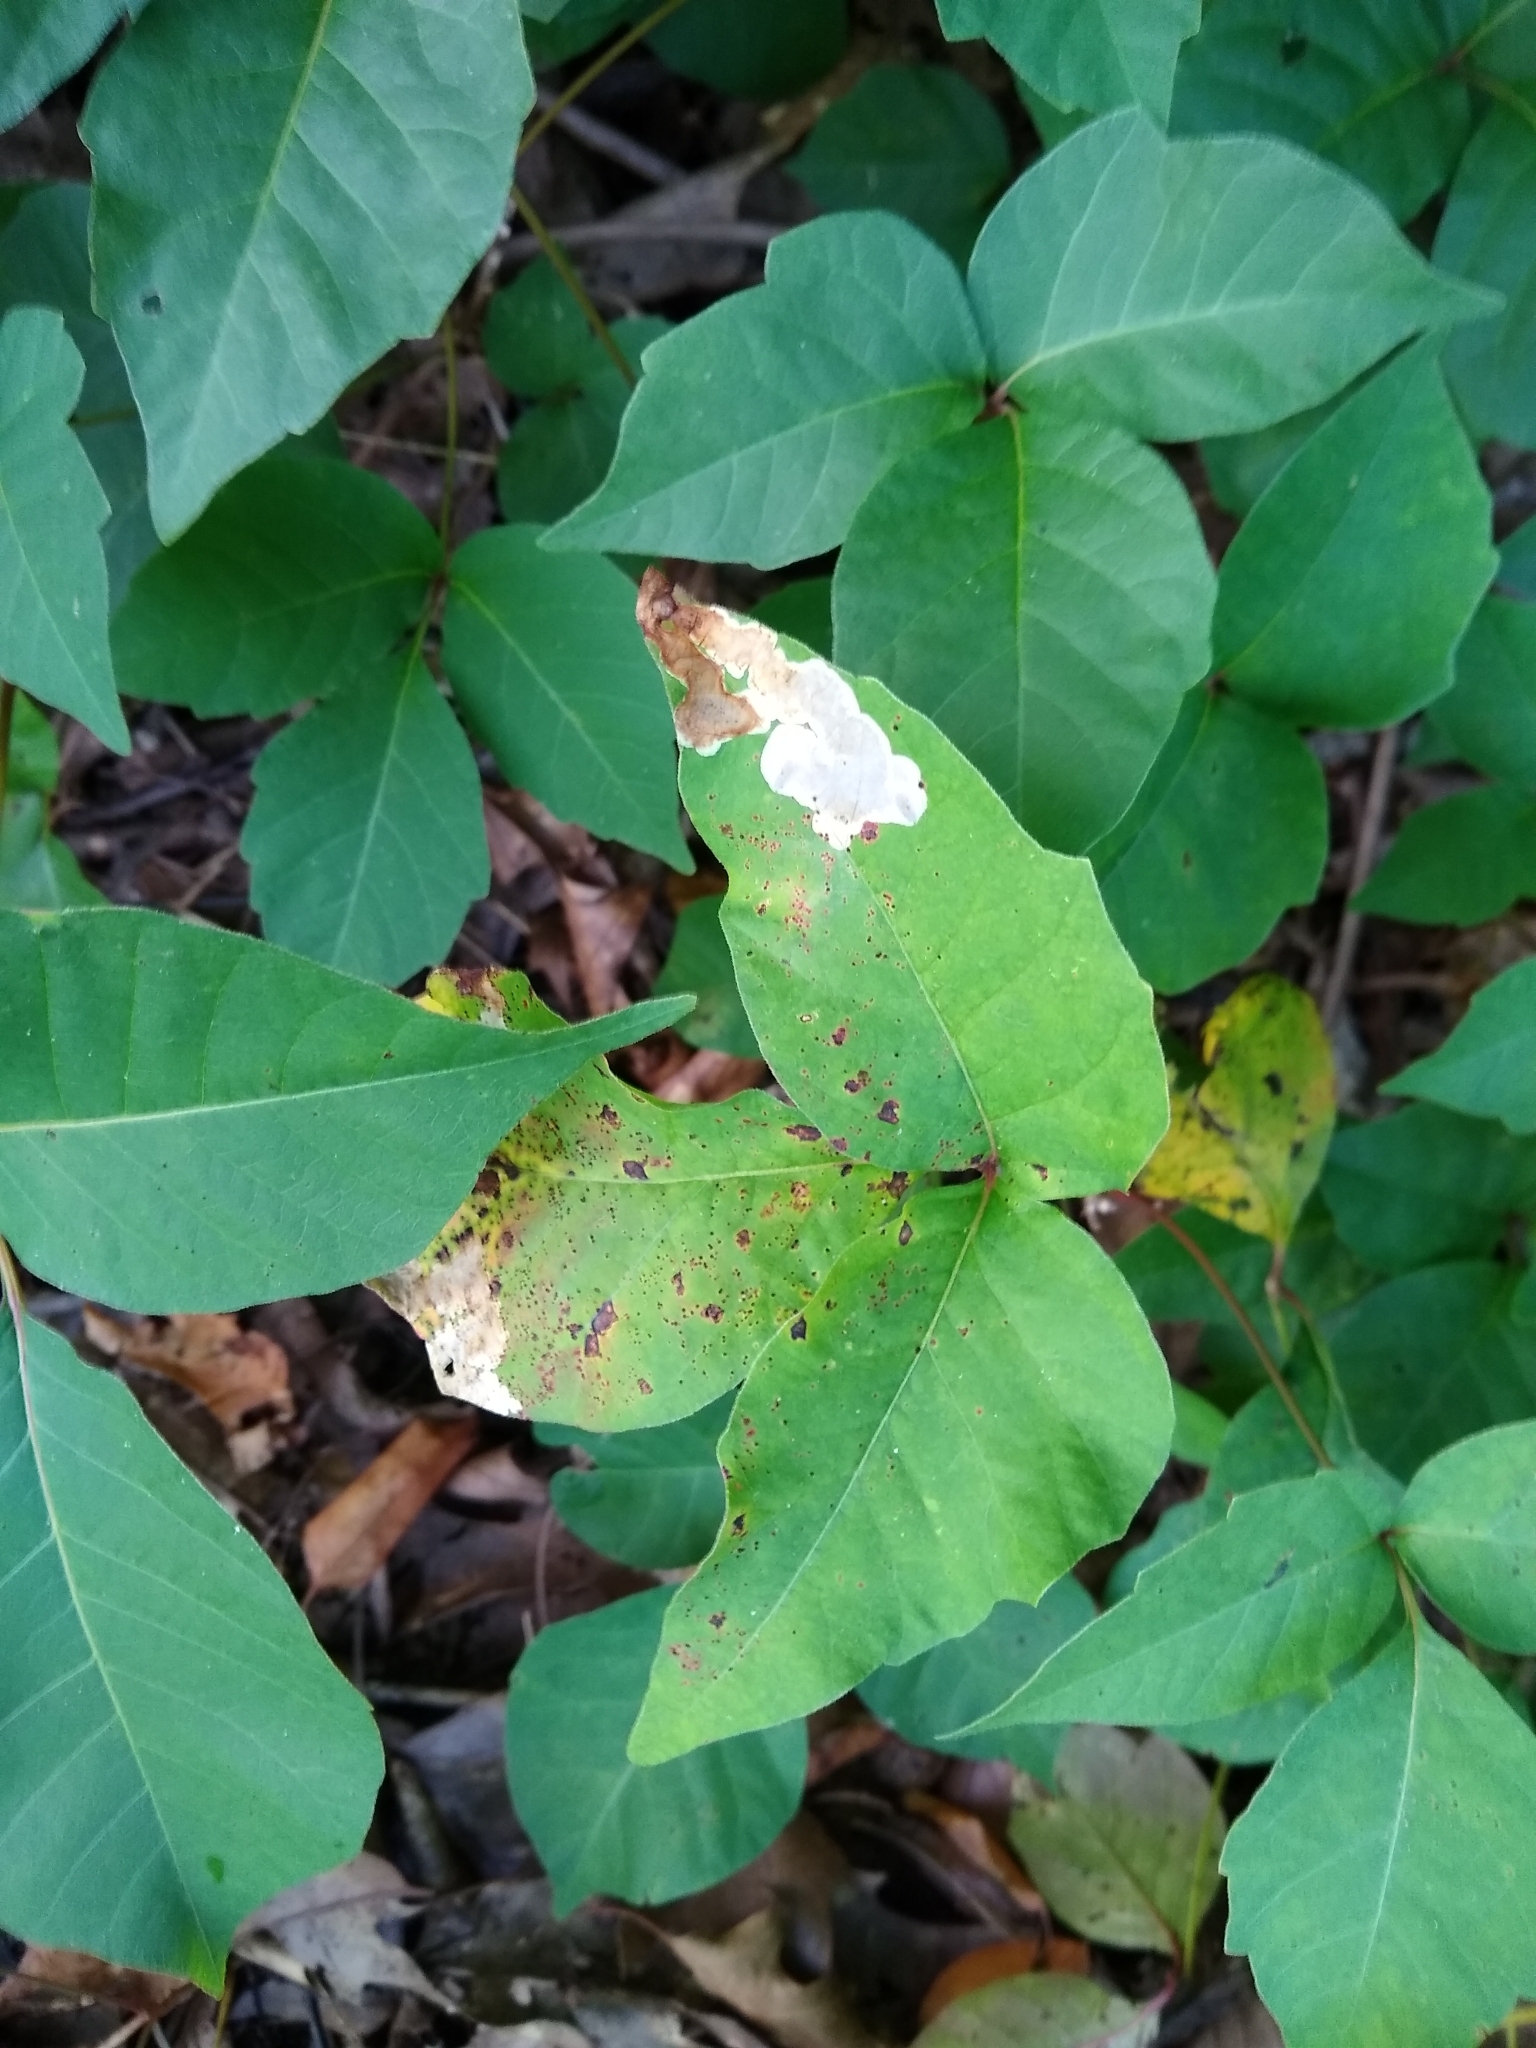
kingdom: Animalia
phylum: Arthropoda
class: Insecta
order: Lepidoptera
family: Gracillariidae
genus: Cameraria
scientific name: Cameraria guttifinitella
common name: Poison ivy leaf-miner moth
